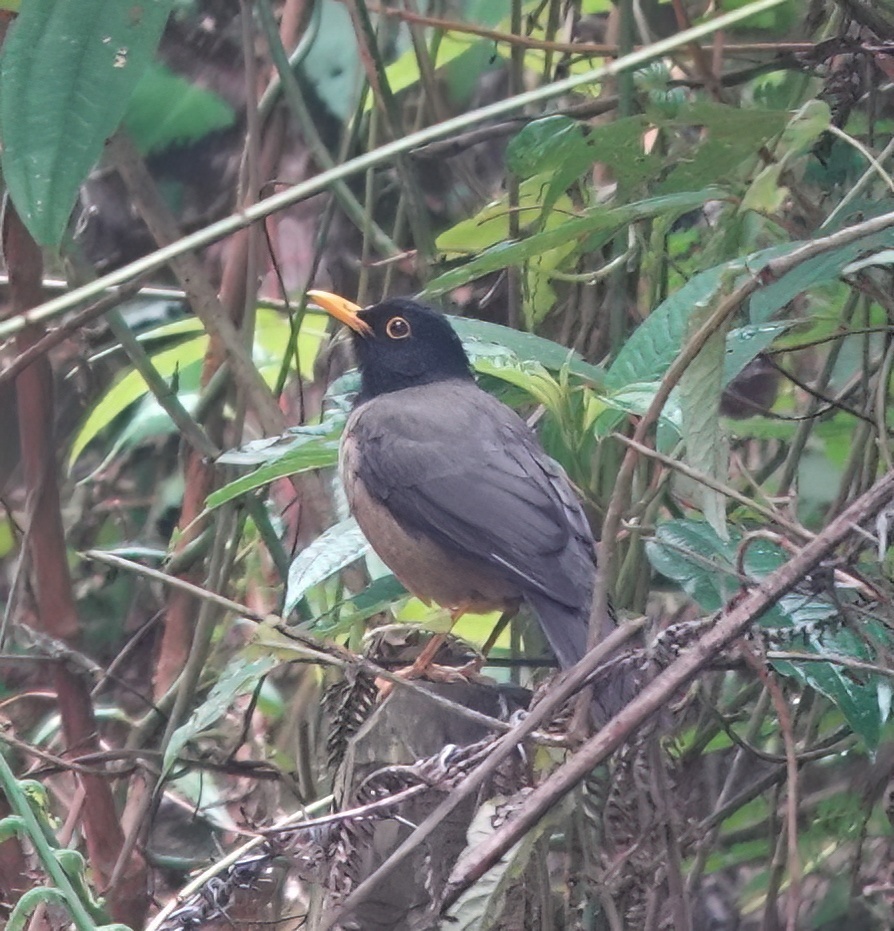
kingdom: Animalia
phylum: Chordata
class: Aves
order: Passeriformes
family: Turdidae
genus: Turdus
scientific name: Turdus olivater
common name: Black-hooded thrush
